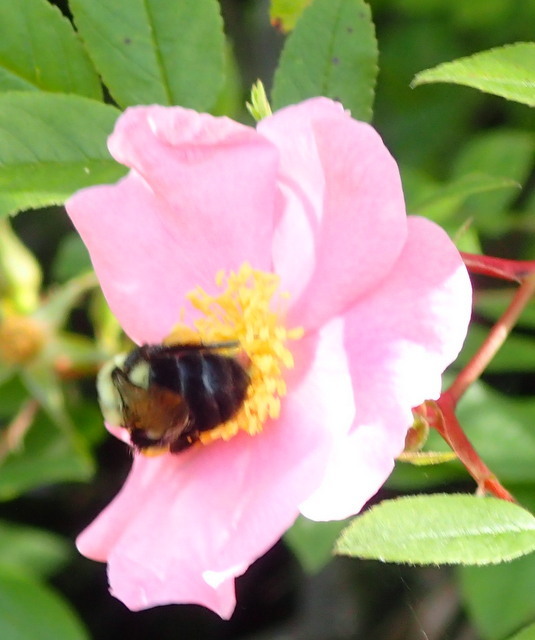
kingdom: Animalia
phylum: Arthropoda
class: Insecta
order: Hymenoptera
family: Apidae
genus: Bombus
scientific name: Bombus impatiens
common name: Common eastern bumble bee
